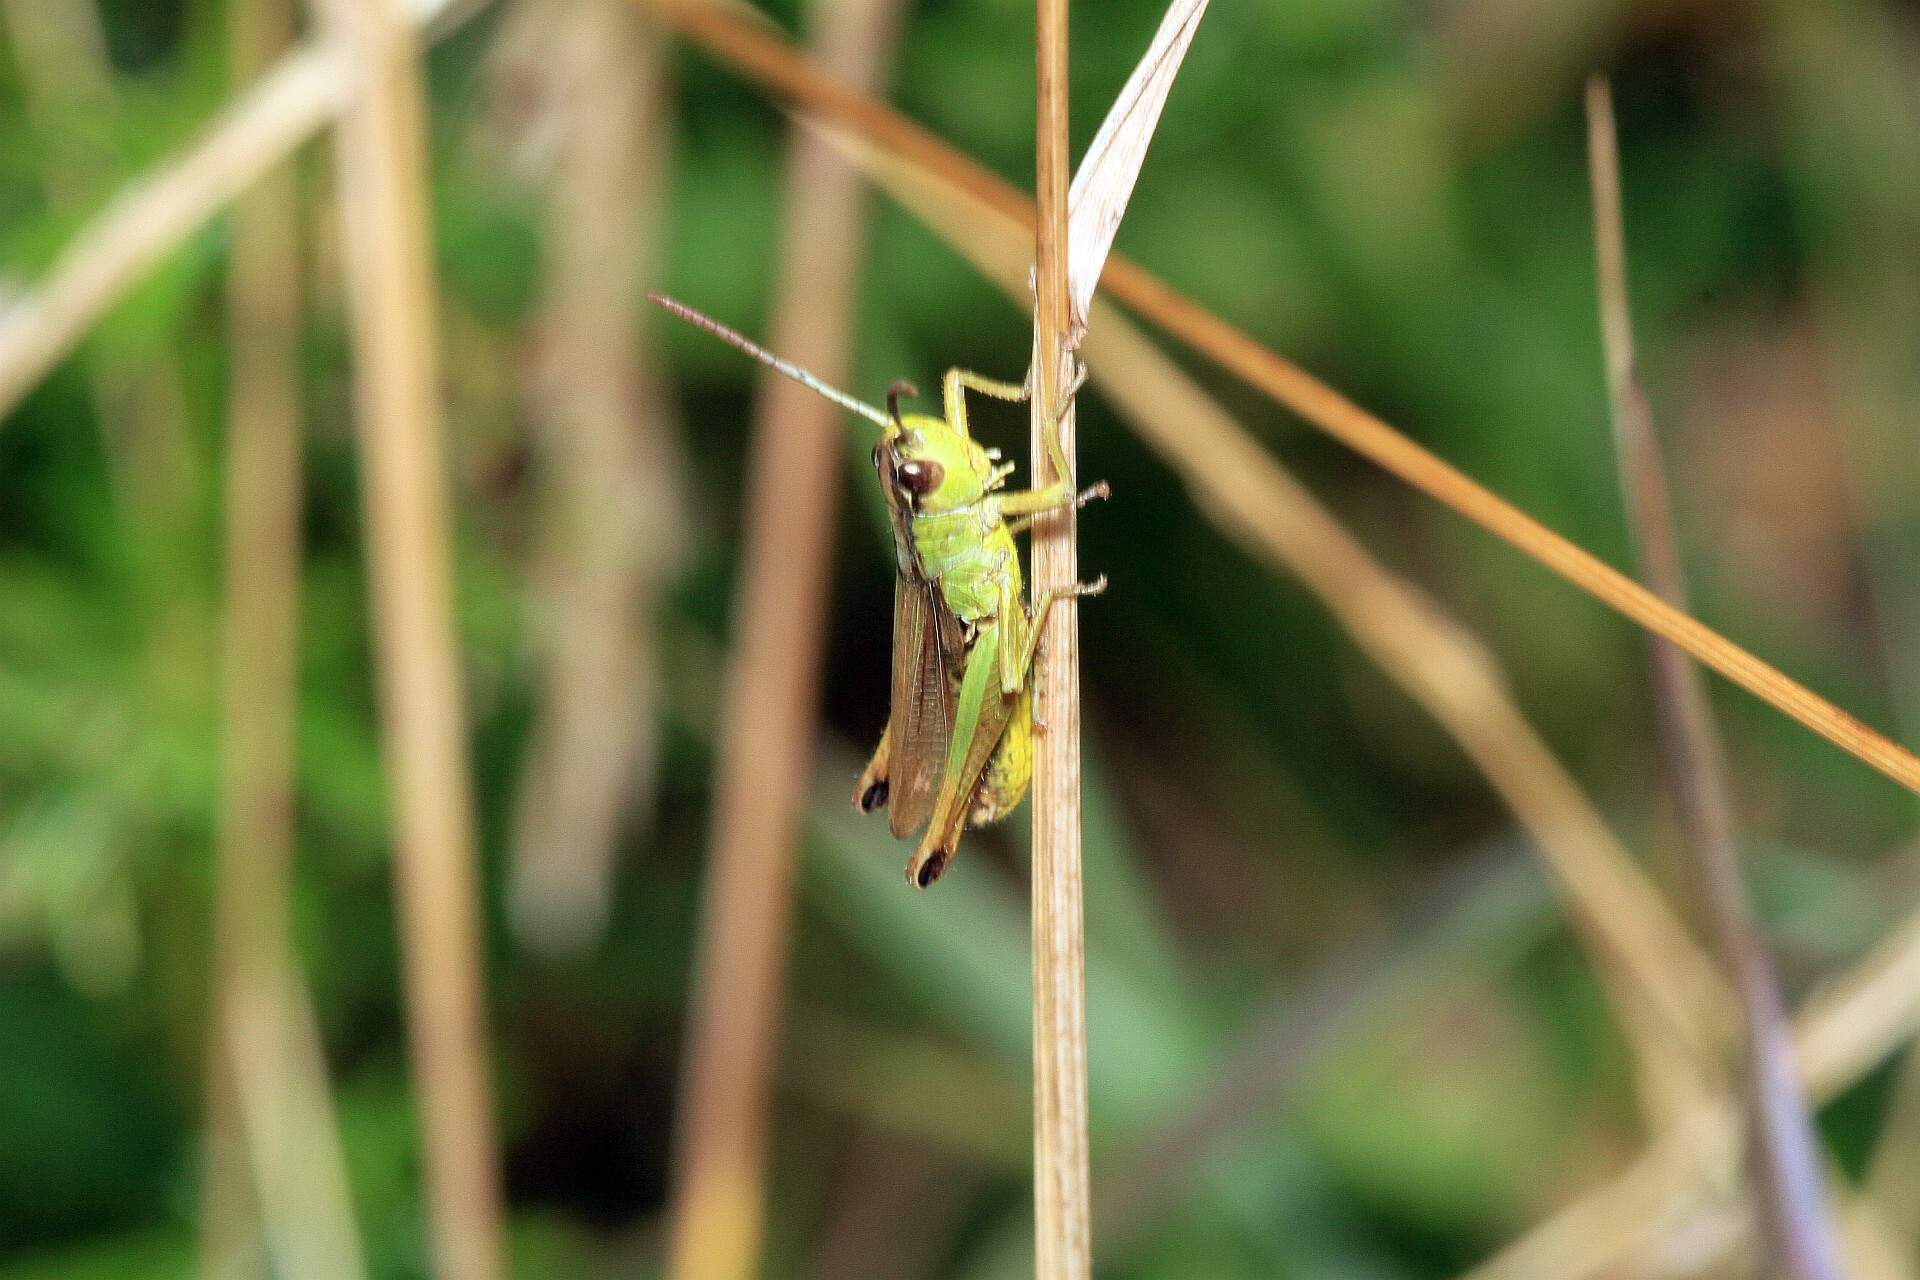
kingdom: Animalia
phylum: Arthropoda
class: Insecta
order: Orthoptera
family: Acrididae
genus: Pseudochorthippus
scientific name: Pseudochorthippus parallelus
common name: Meadow grasshopper
